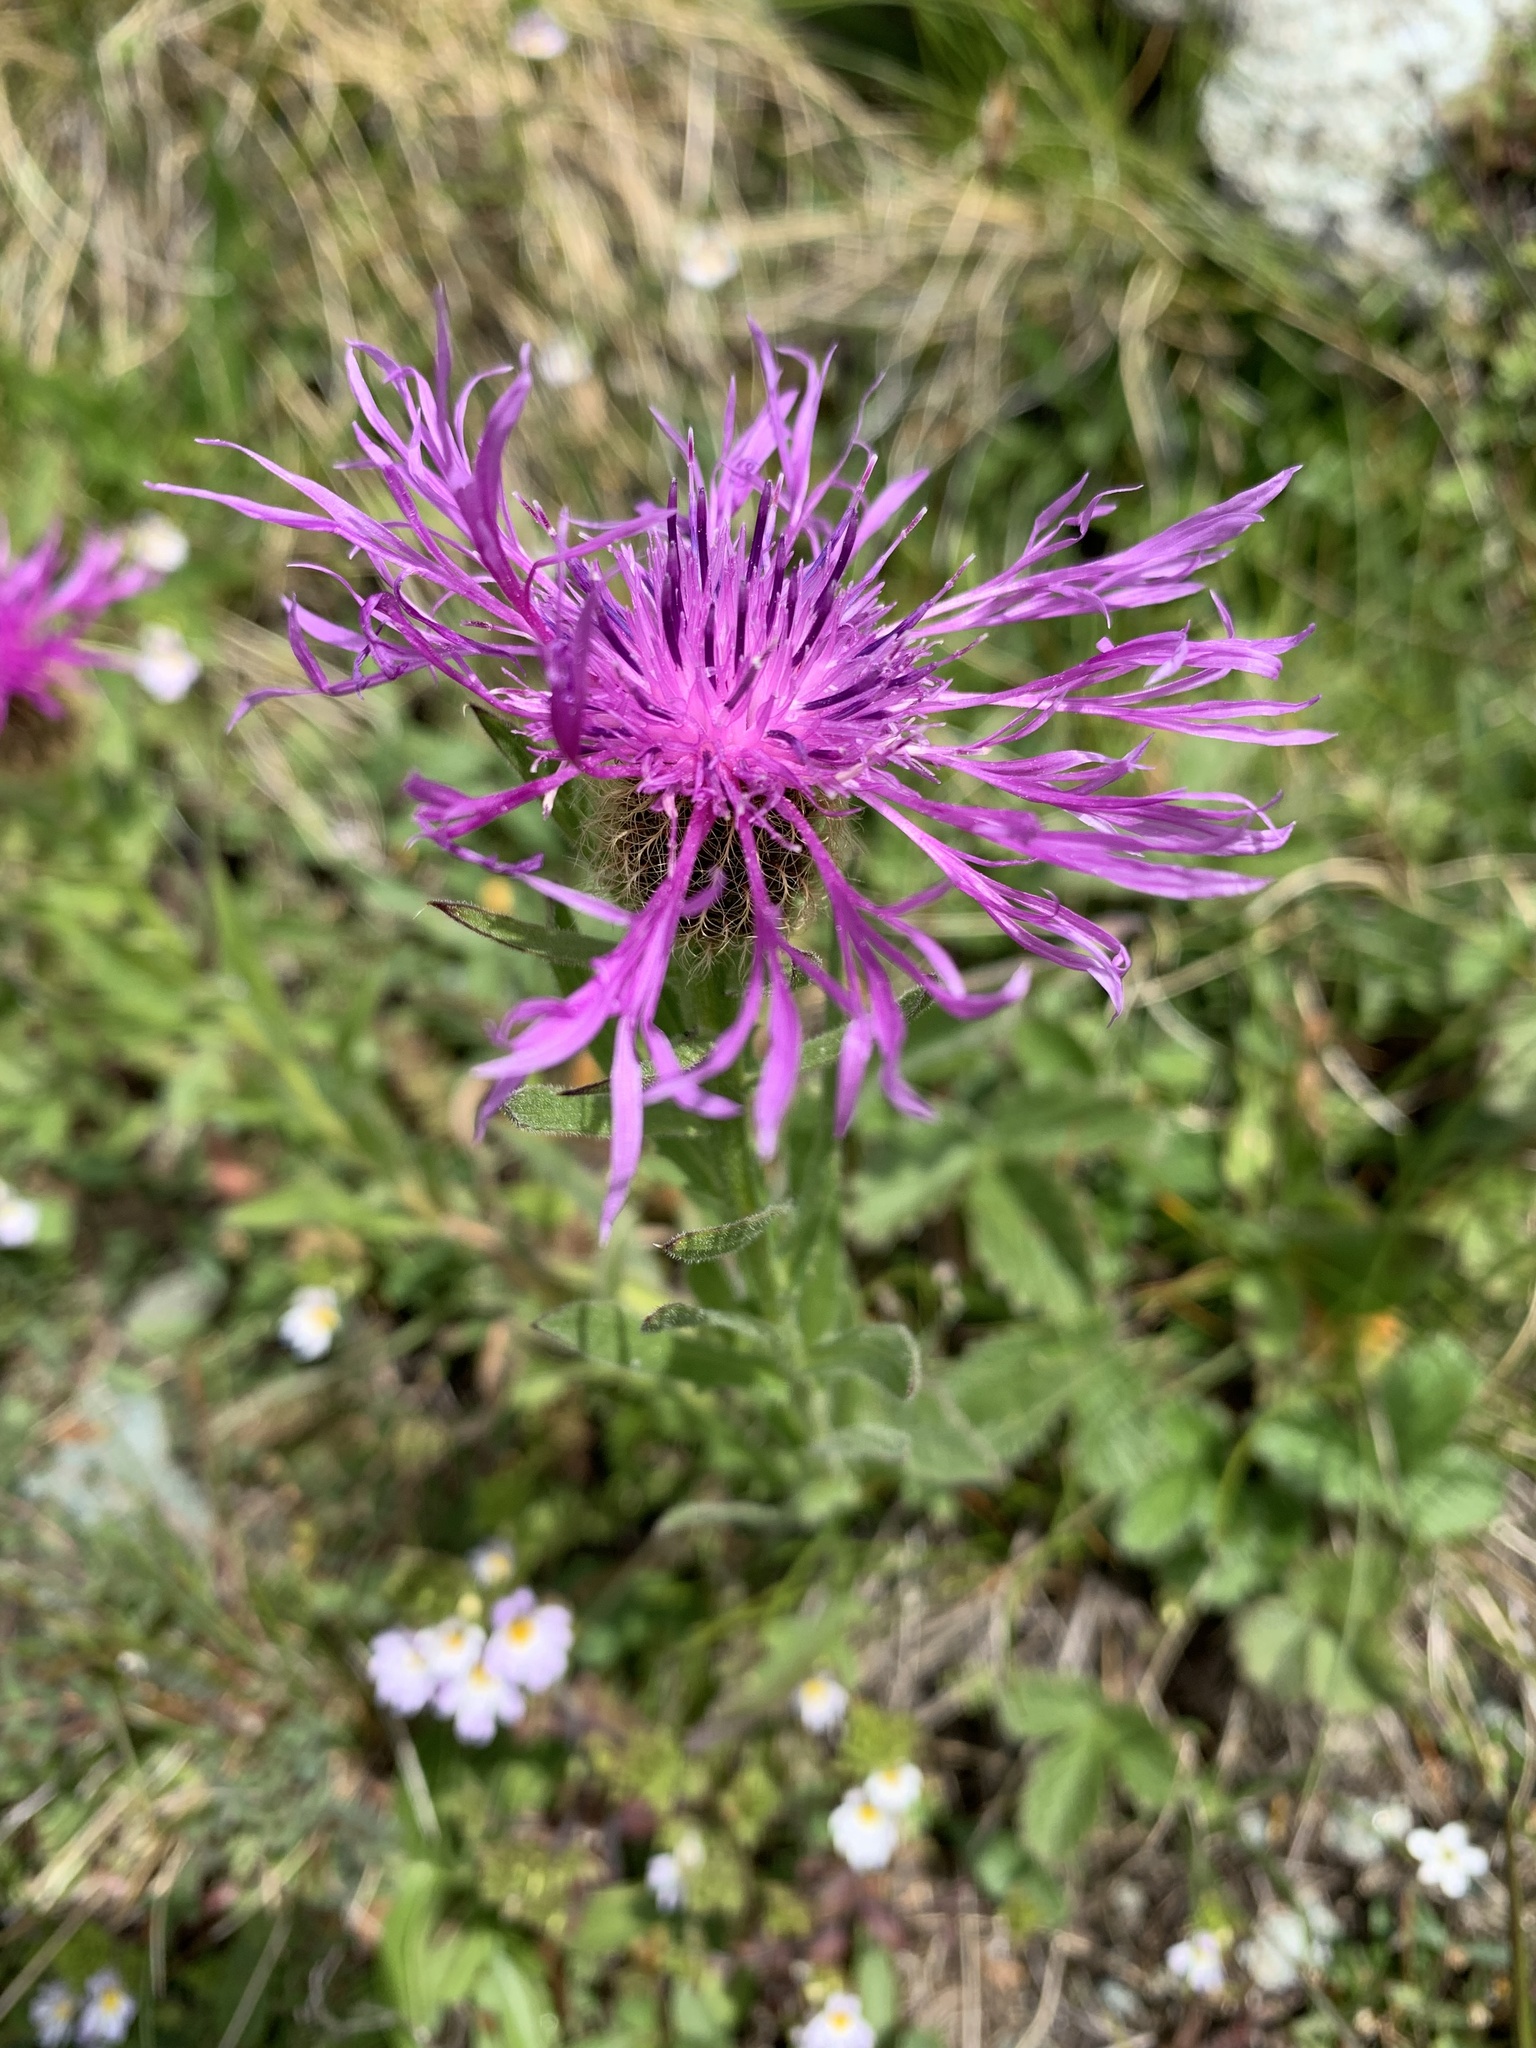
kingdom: Plantae
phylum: Tracheophyta
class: Magnoliopsida
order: Asterales
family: Asteraceae
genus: Centaurea
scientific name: Centaurea nervosa
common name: Singleflower knapweed
